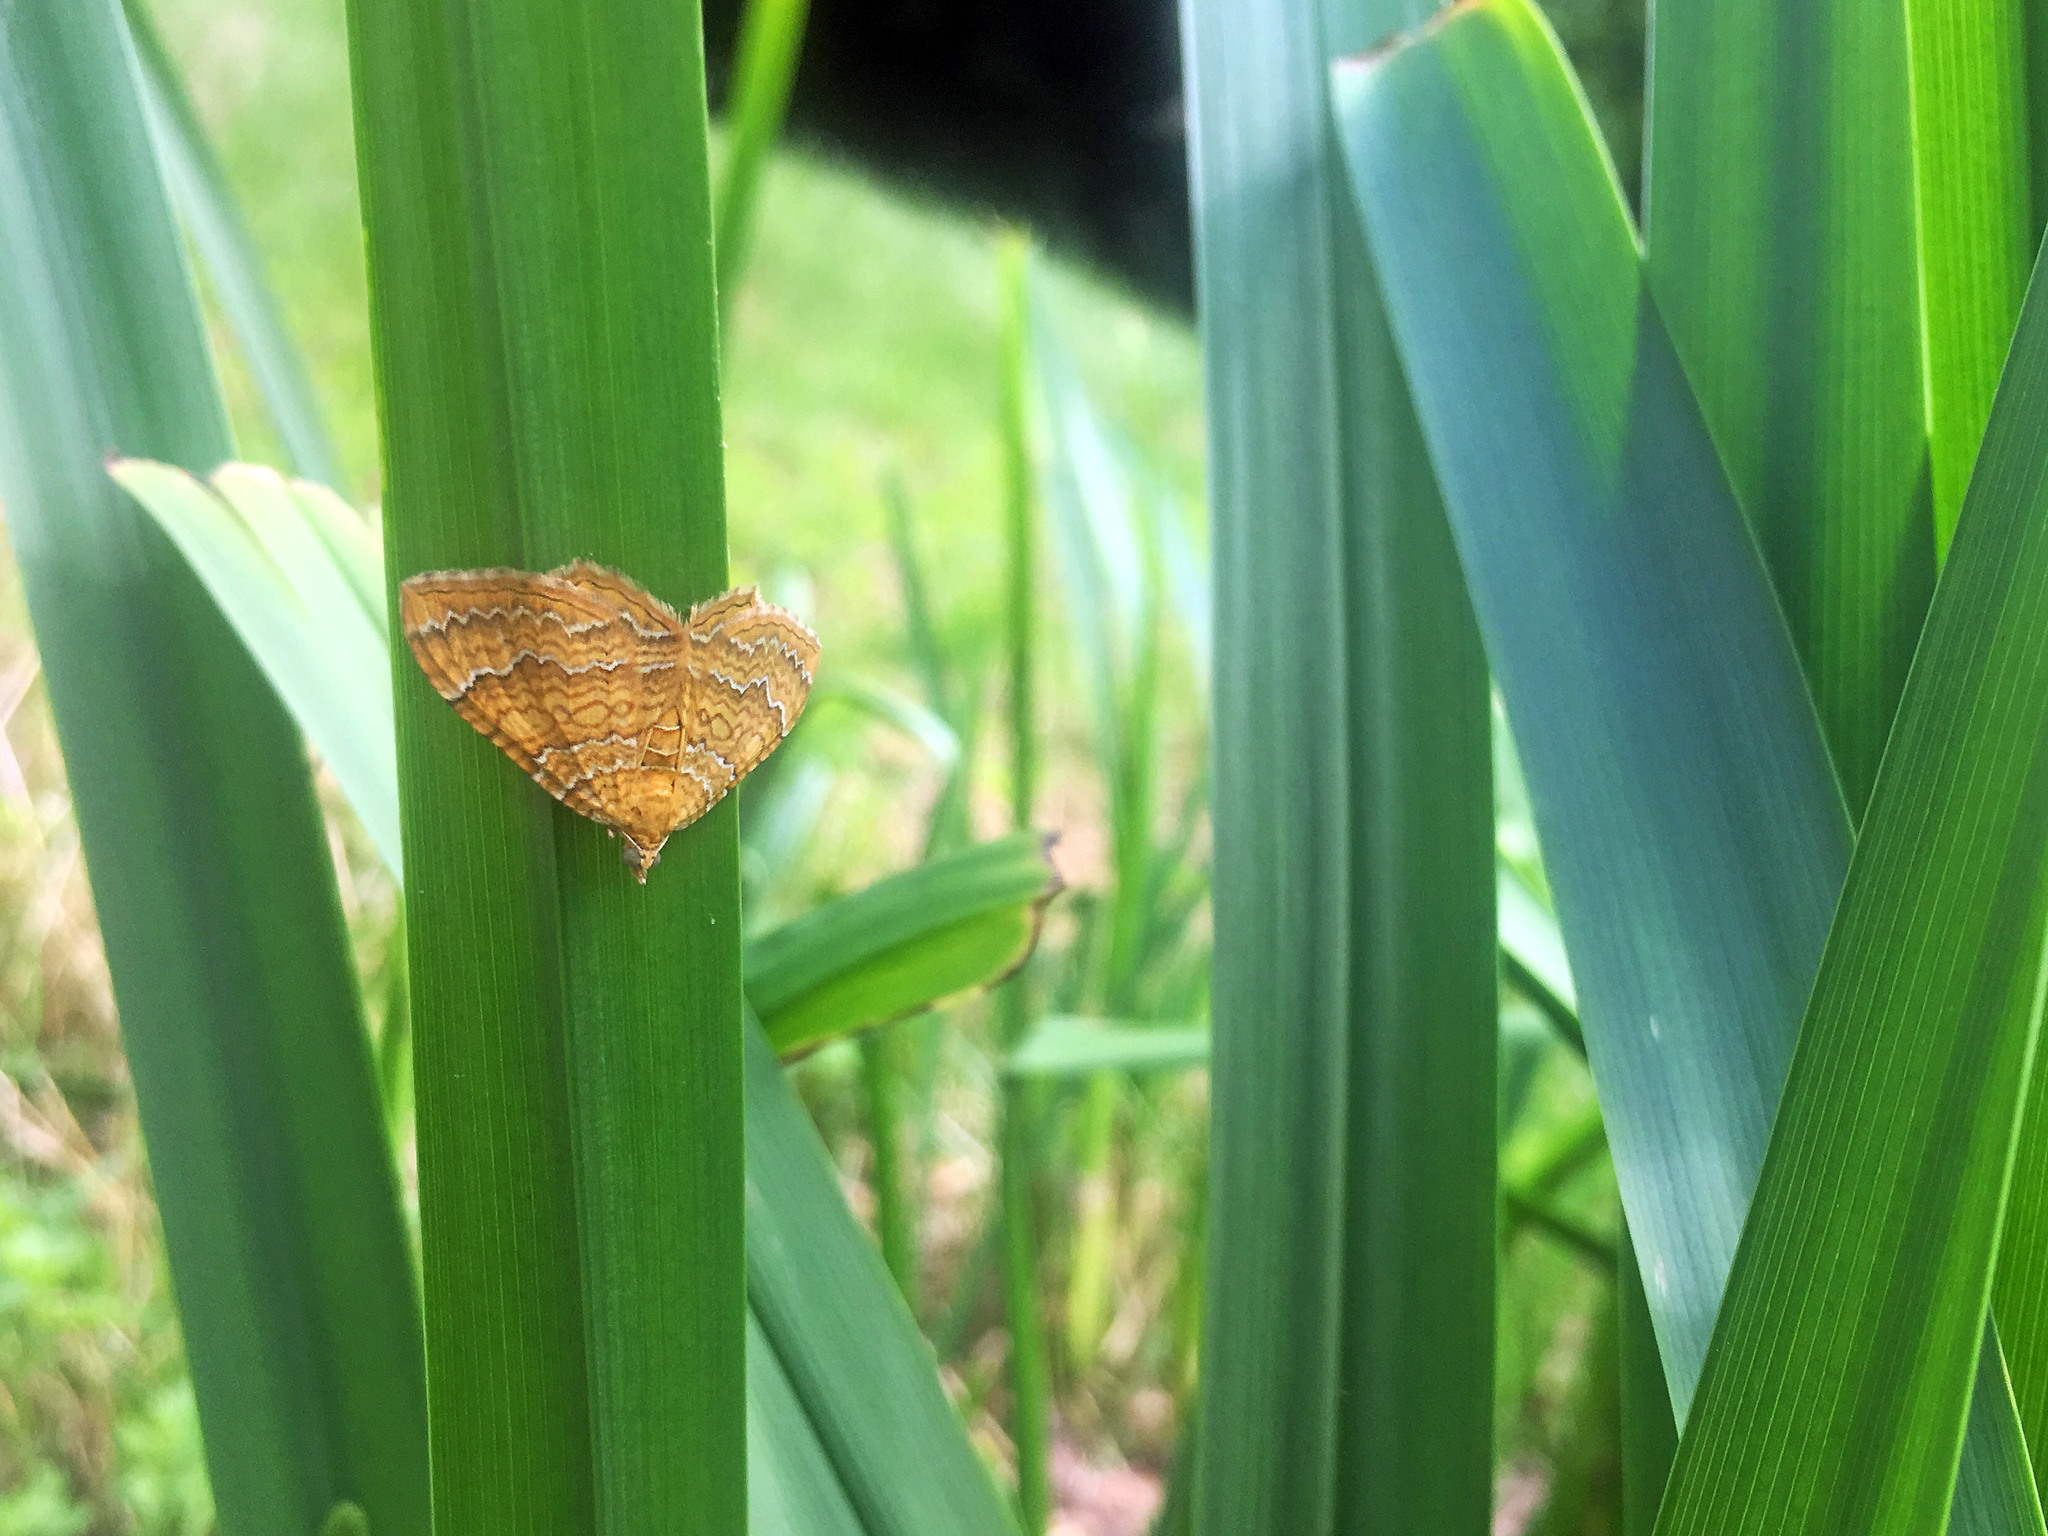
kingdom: Animalia
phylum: Arthropoda
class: Insecta
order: Lepidoptera
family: Geometridae
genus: Camptogramma
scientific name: Camptogramma bilineata
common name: Yellow shell
